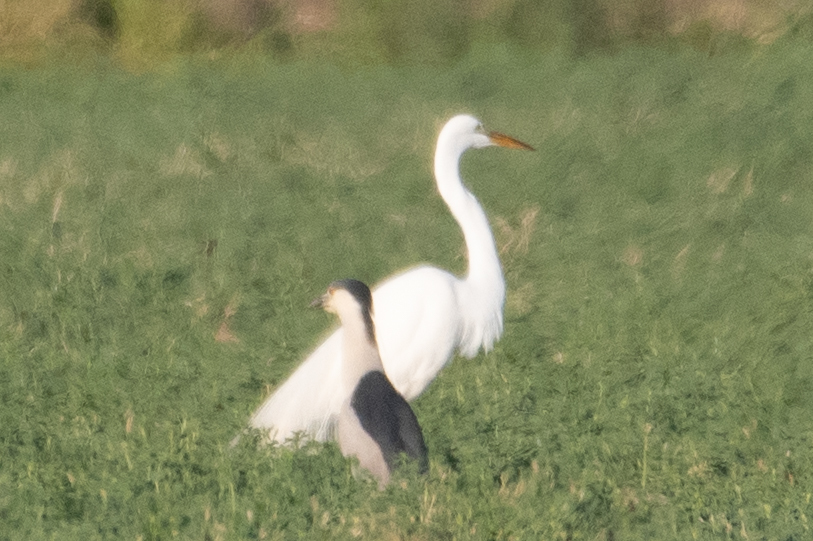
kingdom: Animalia
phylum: Chordata
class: Aves
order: Pelecaniformes
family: Ardeidae
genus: Ardea
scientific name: Ardea alba
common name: Great egret
